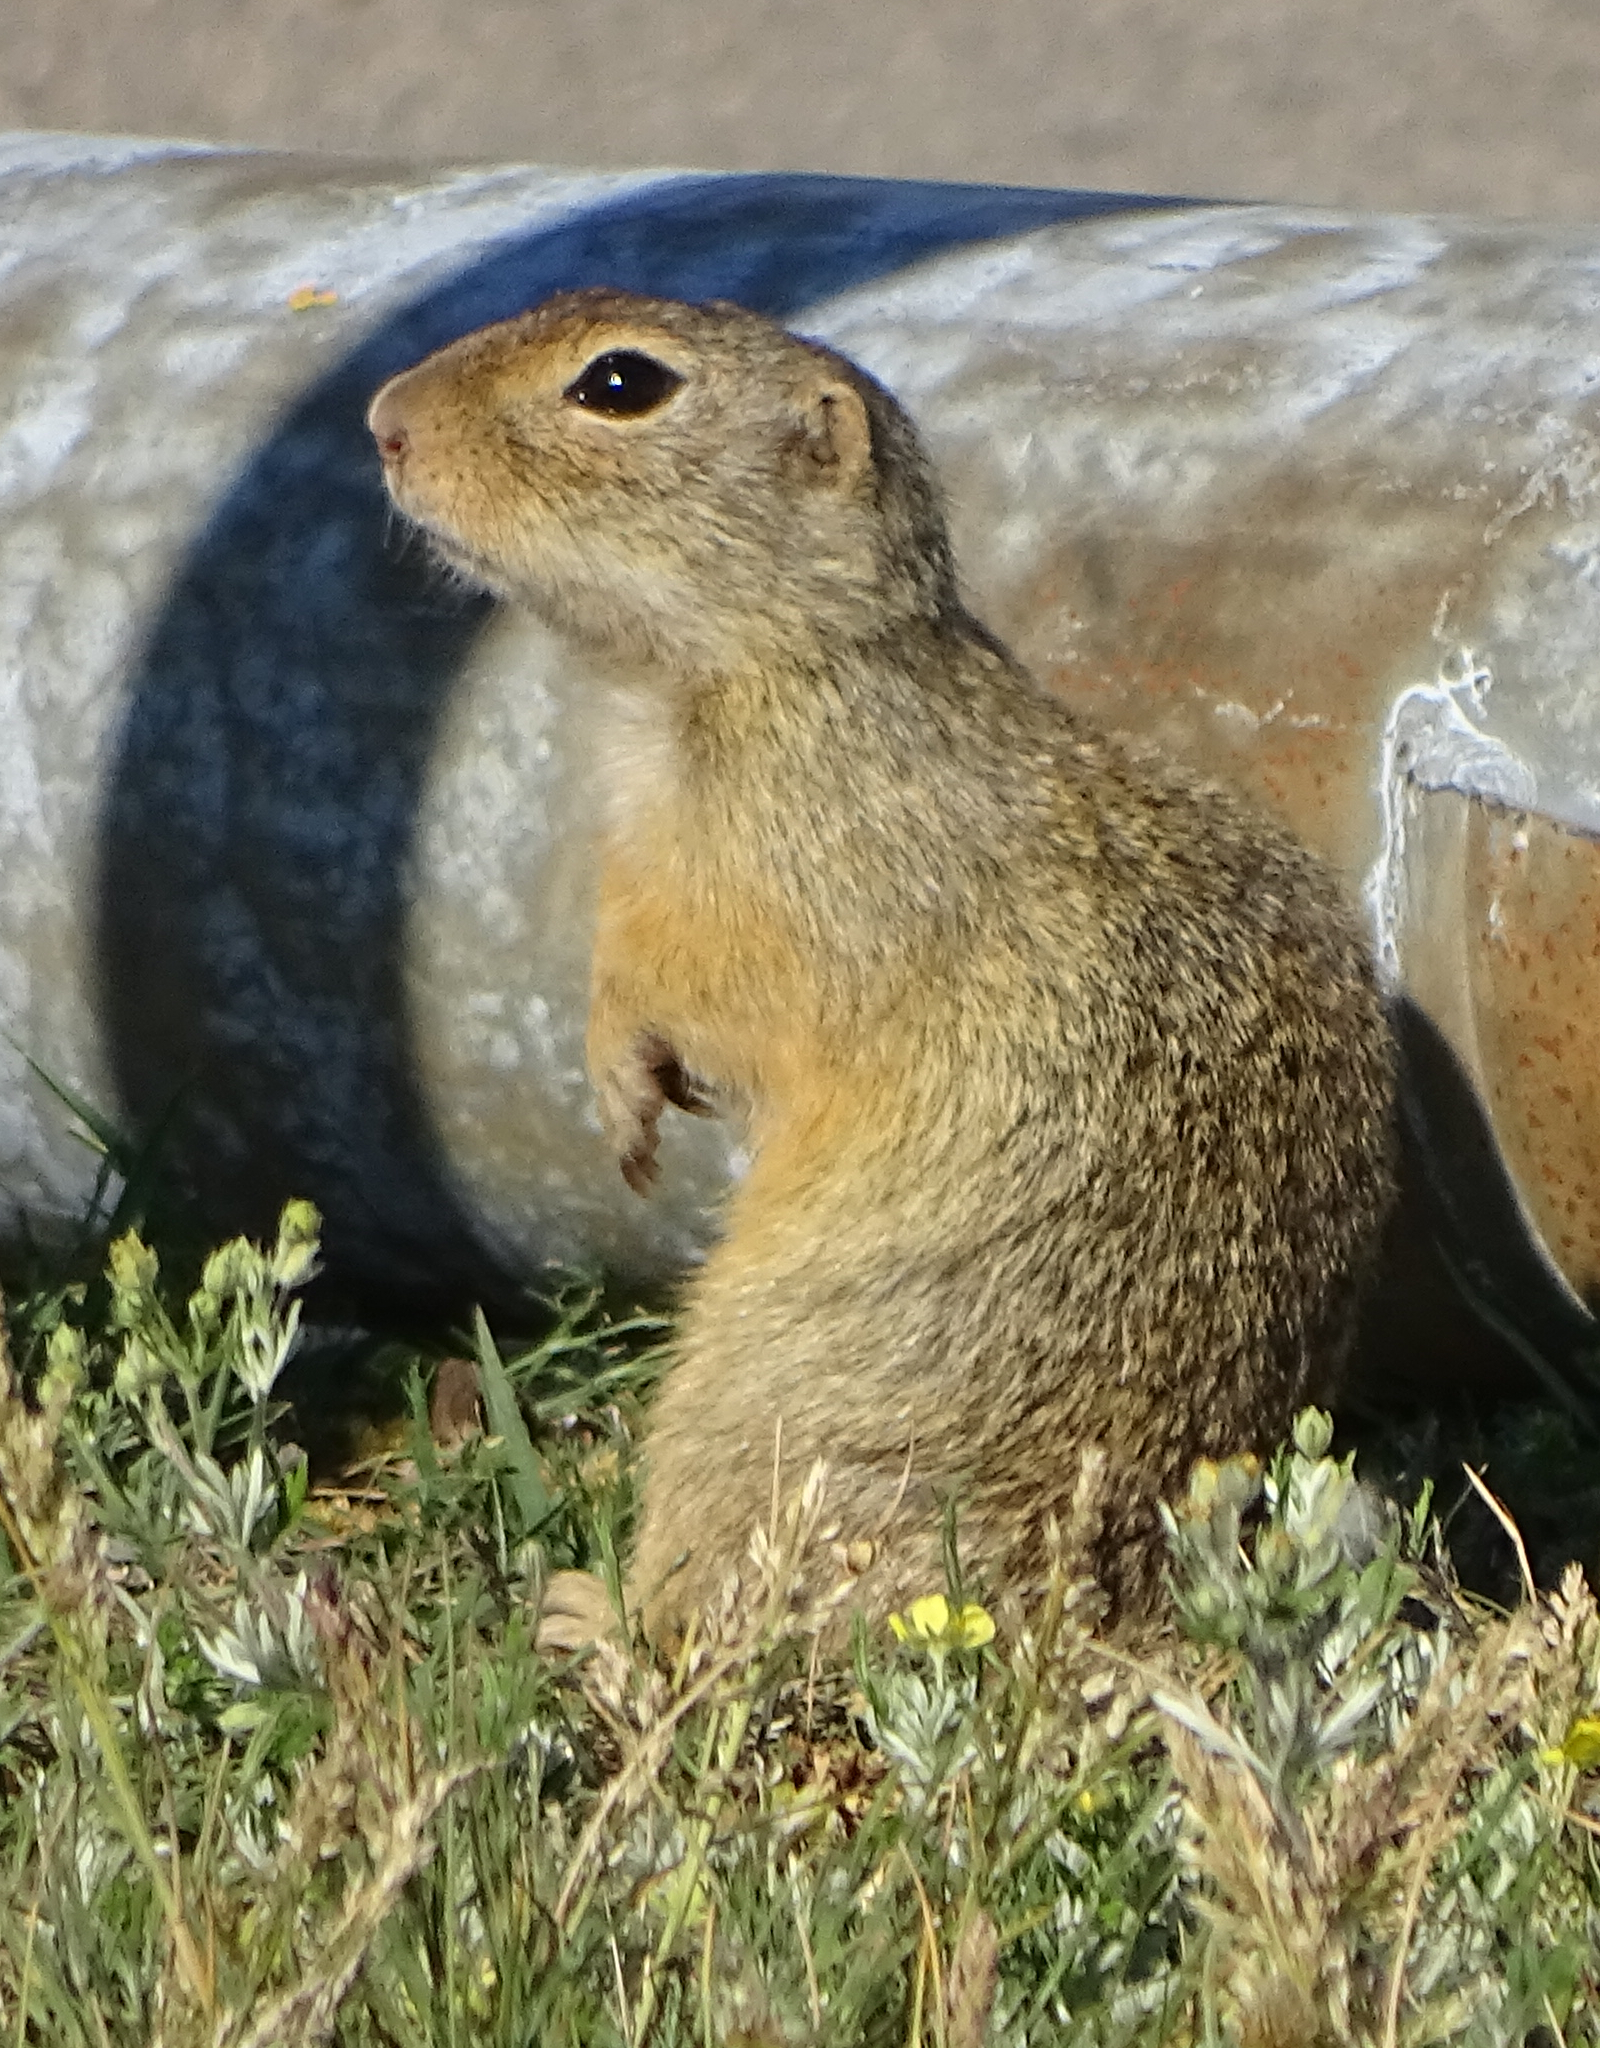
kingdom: Animalia
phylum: Chordata
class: Mammalia
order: Rodentia
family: Sciuridae
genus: Spermophilus
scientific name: Spermophilus citellus
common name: European ground squirrel
